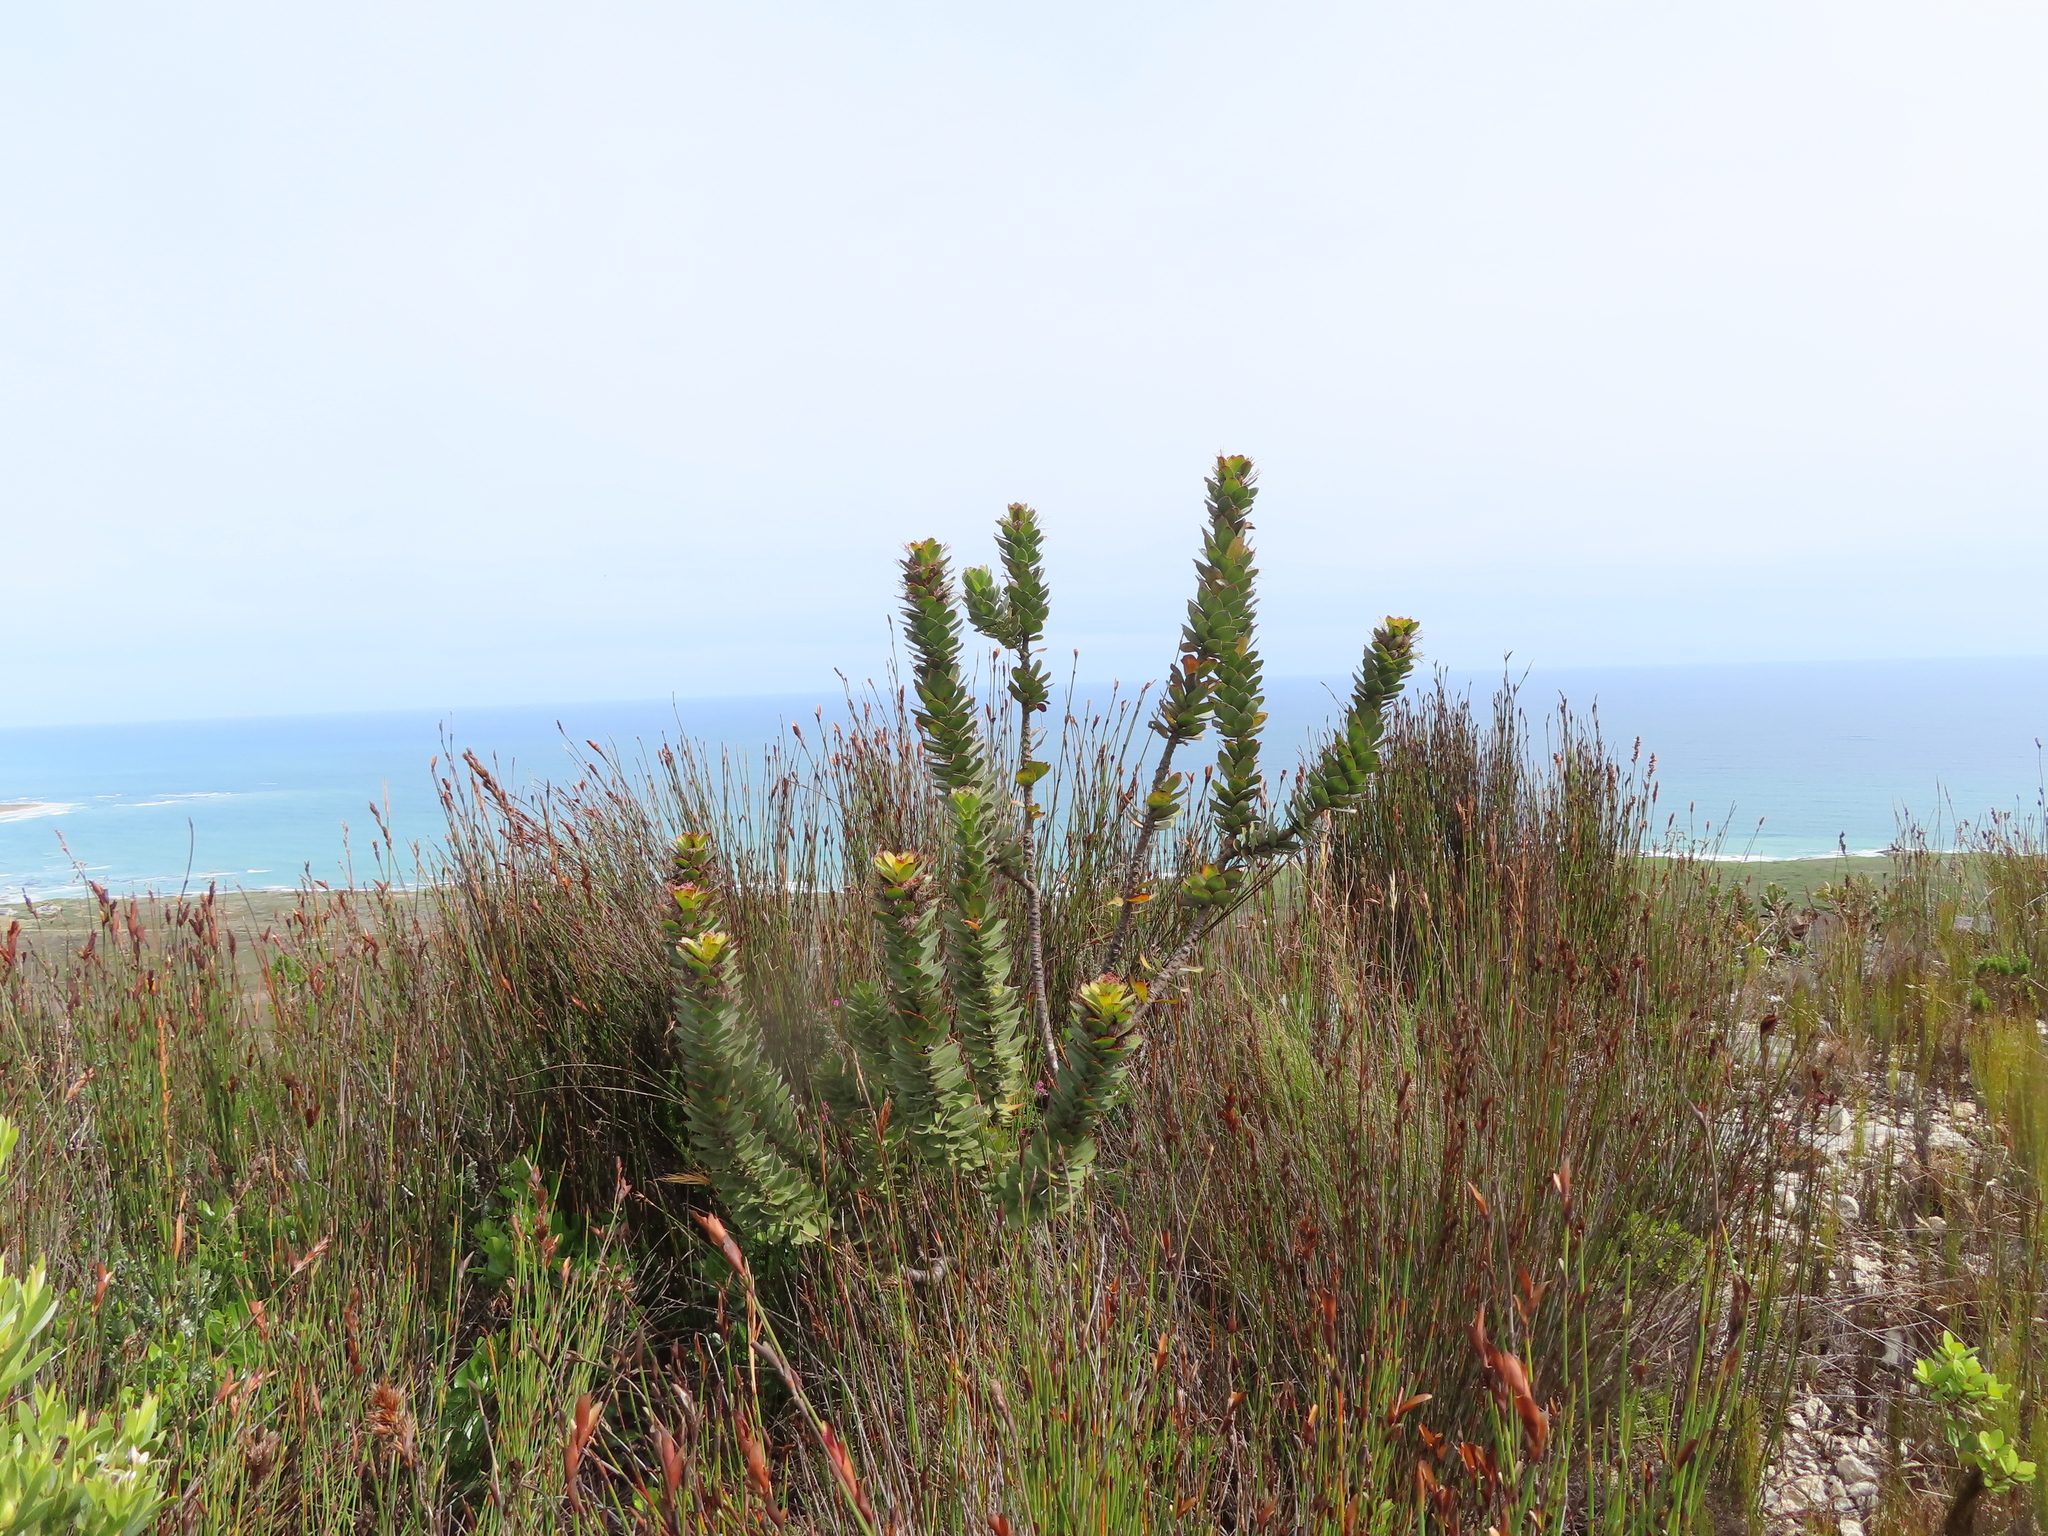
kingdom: Plantae
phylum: Tracheophyta
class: Magnoliopsida
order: Proteales
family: Proteaceae
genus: Mimetes
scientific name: Mimetes saxatilis
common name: Limestone pagoda
